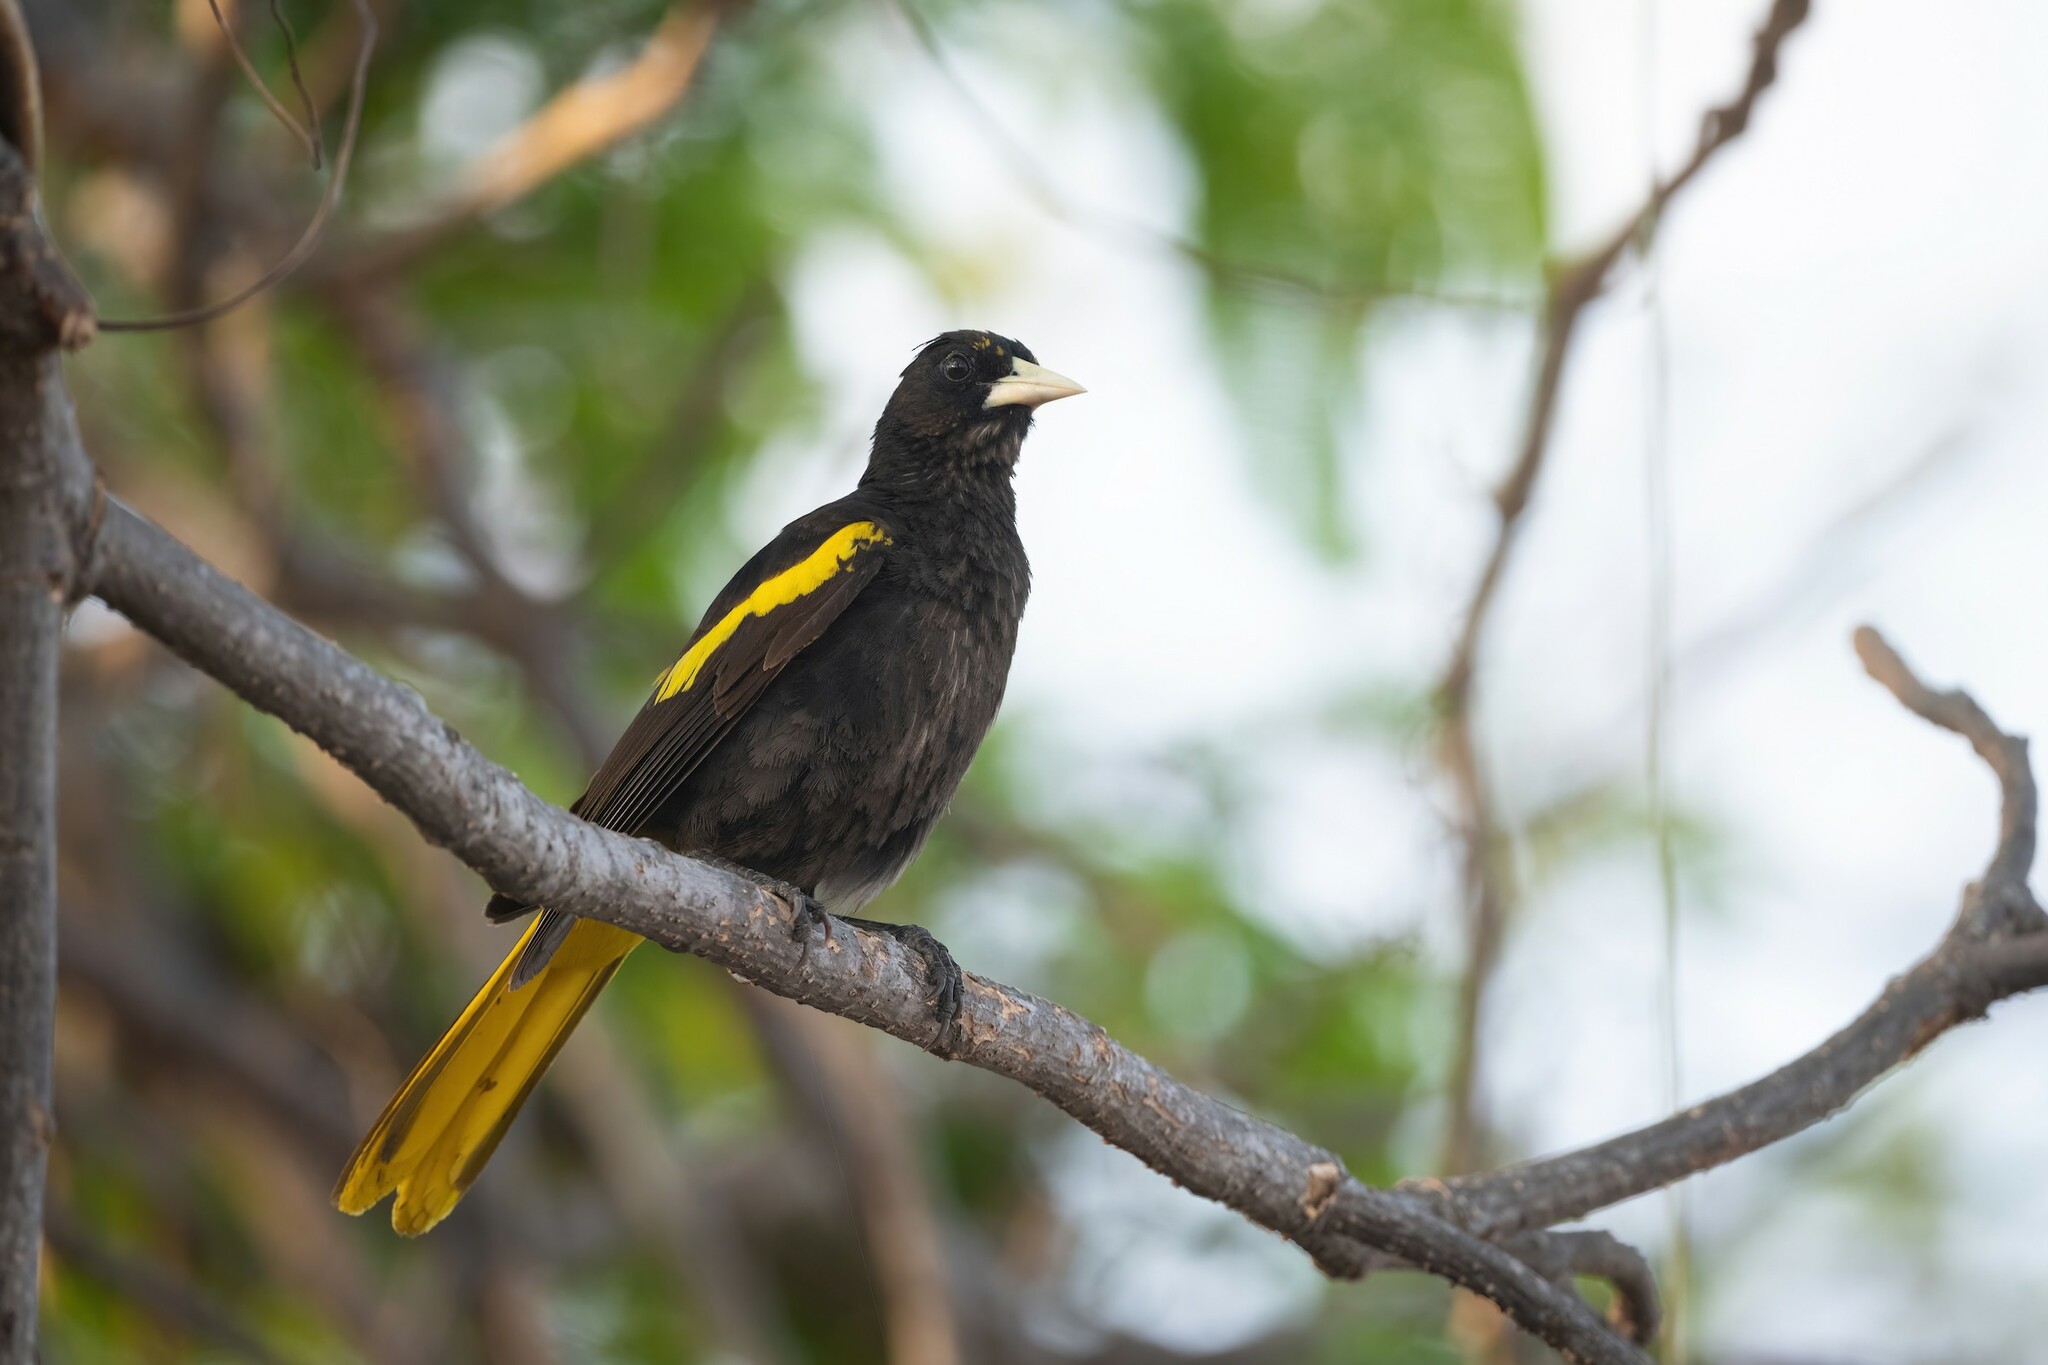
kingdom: Animalia
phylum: Chordata
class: Aves
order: Passeriformes
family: Icteridae
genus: Cacicus
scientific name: Cacicus melanicterus
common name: Yellow-winged cacique
